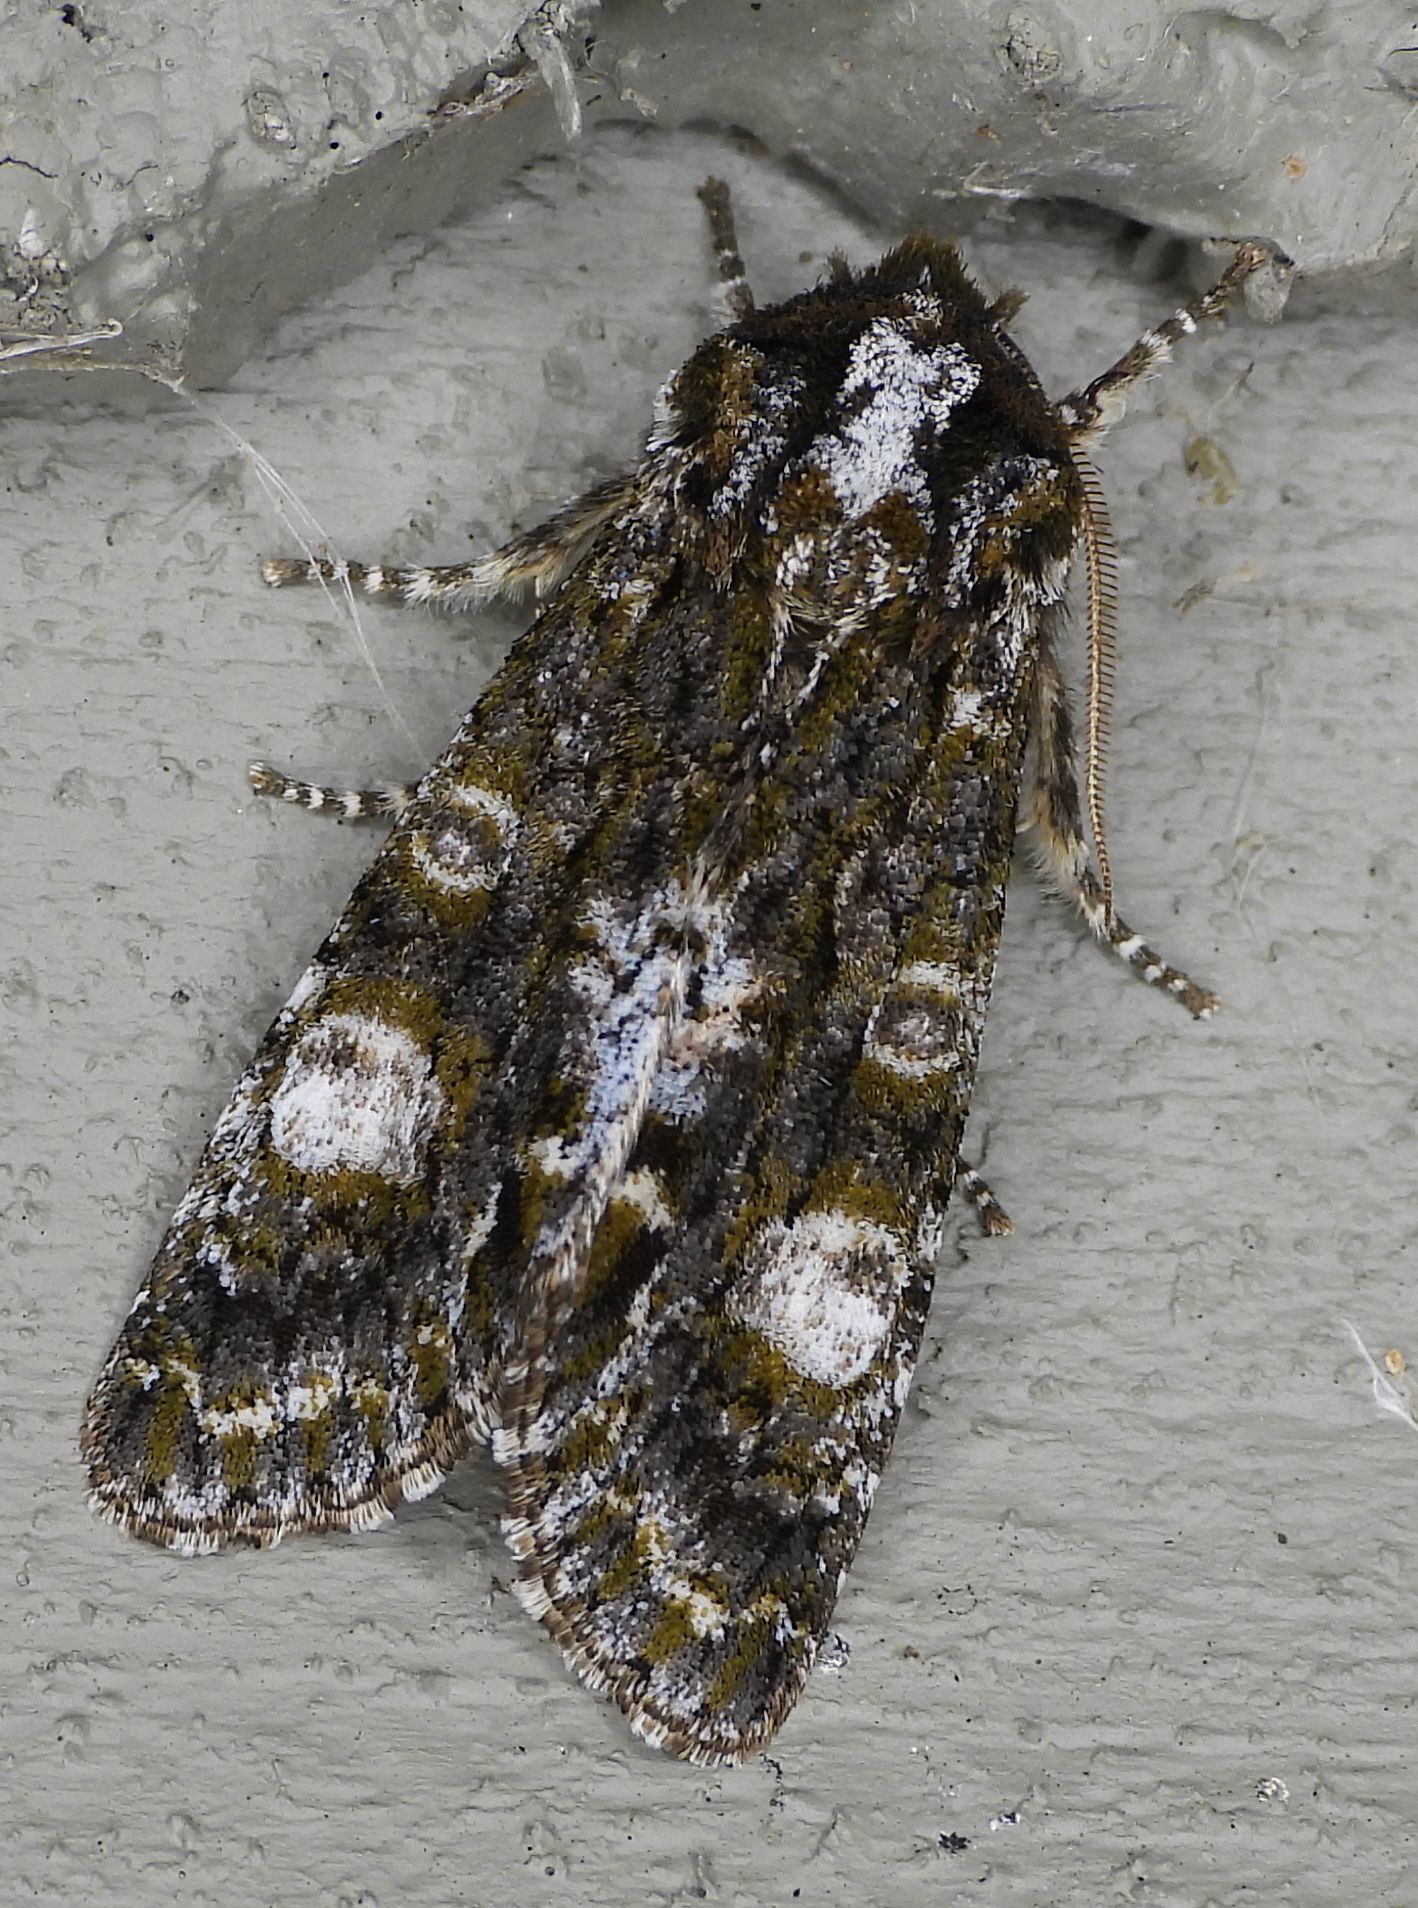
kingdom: Animalia
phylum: Arthropoda
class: Insecta
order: Lepidoptera
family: Noctuidae
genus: Psaphida
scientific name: Psaphida grotei
